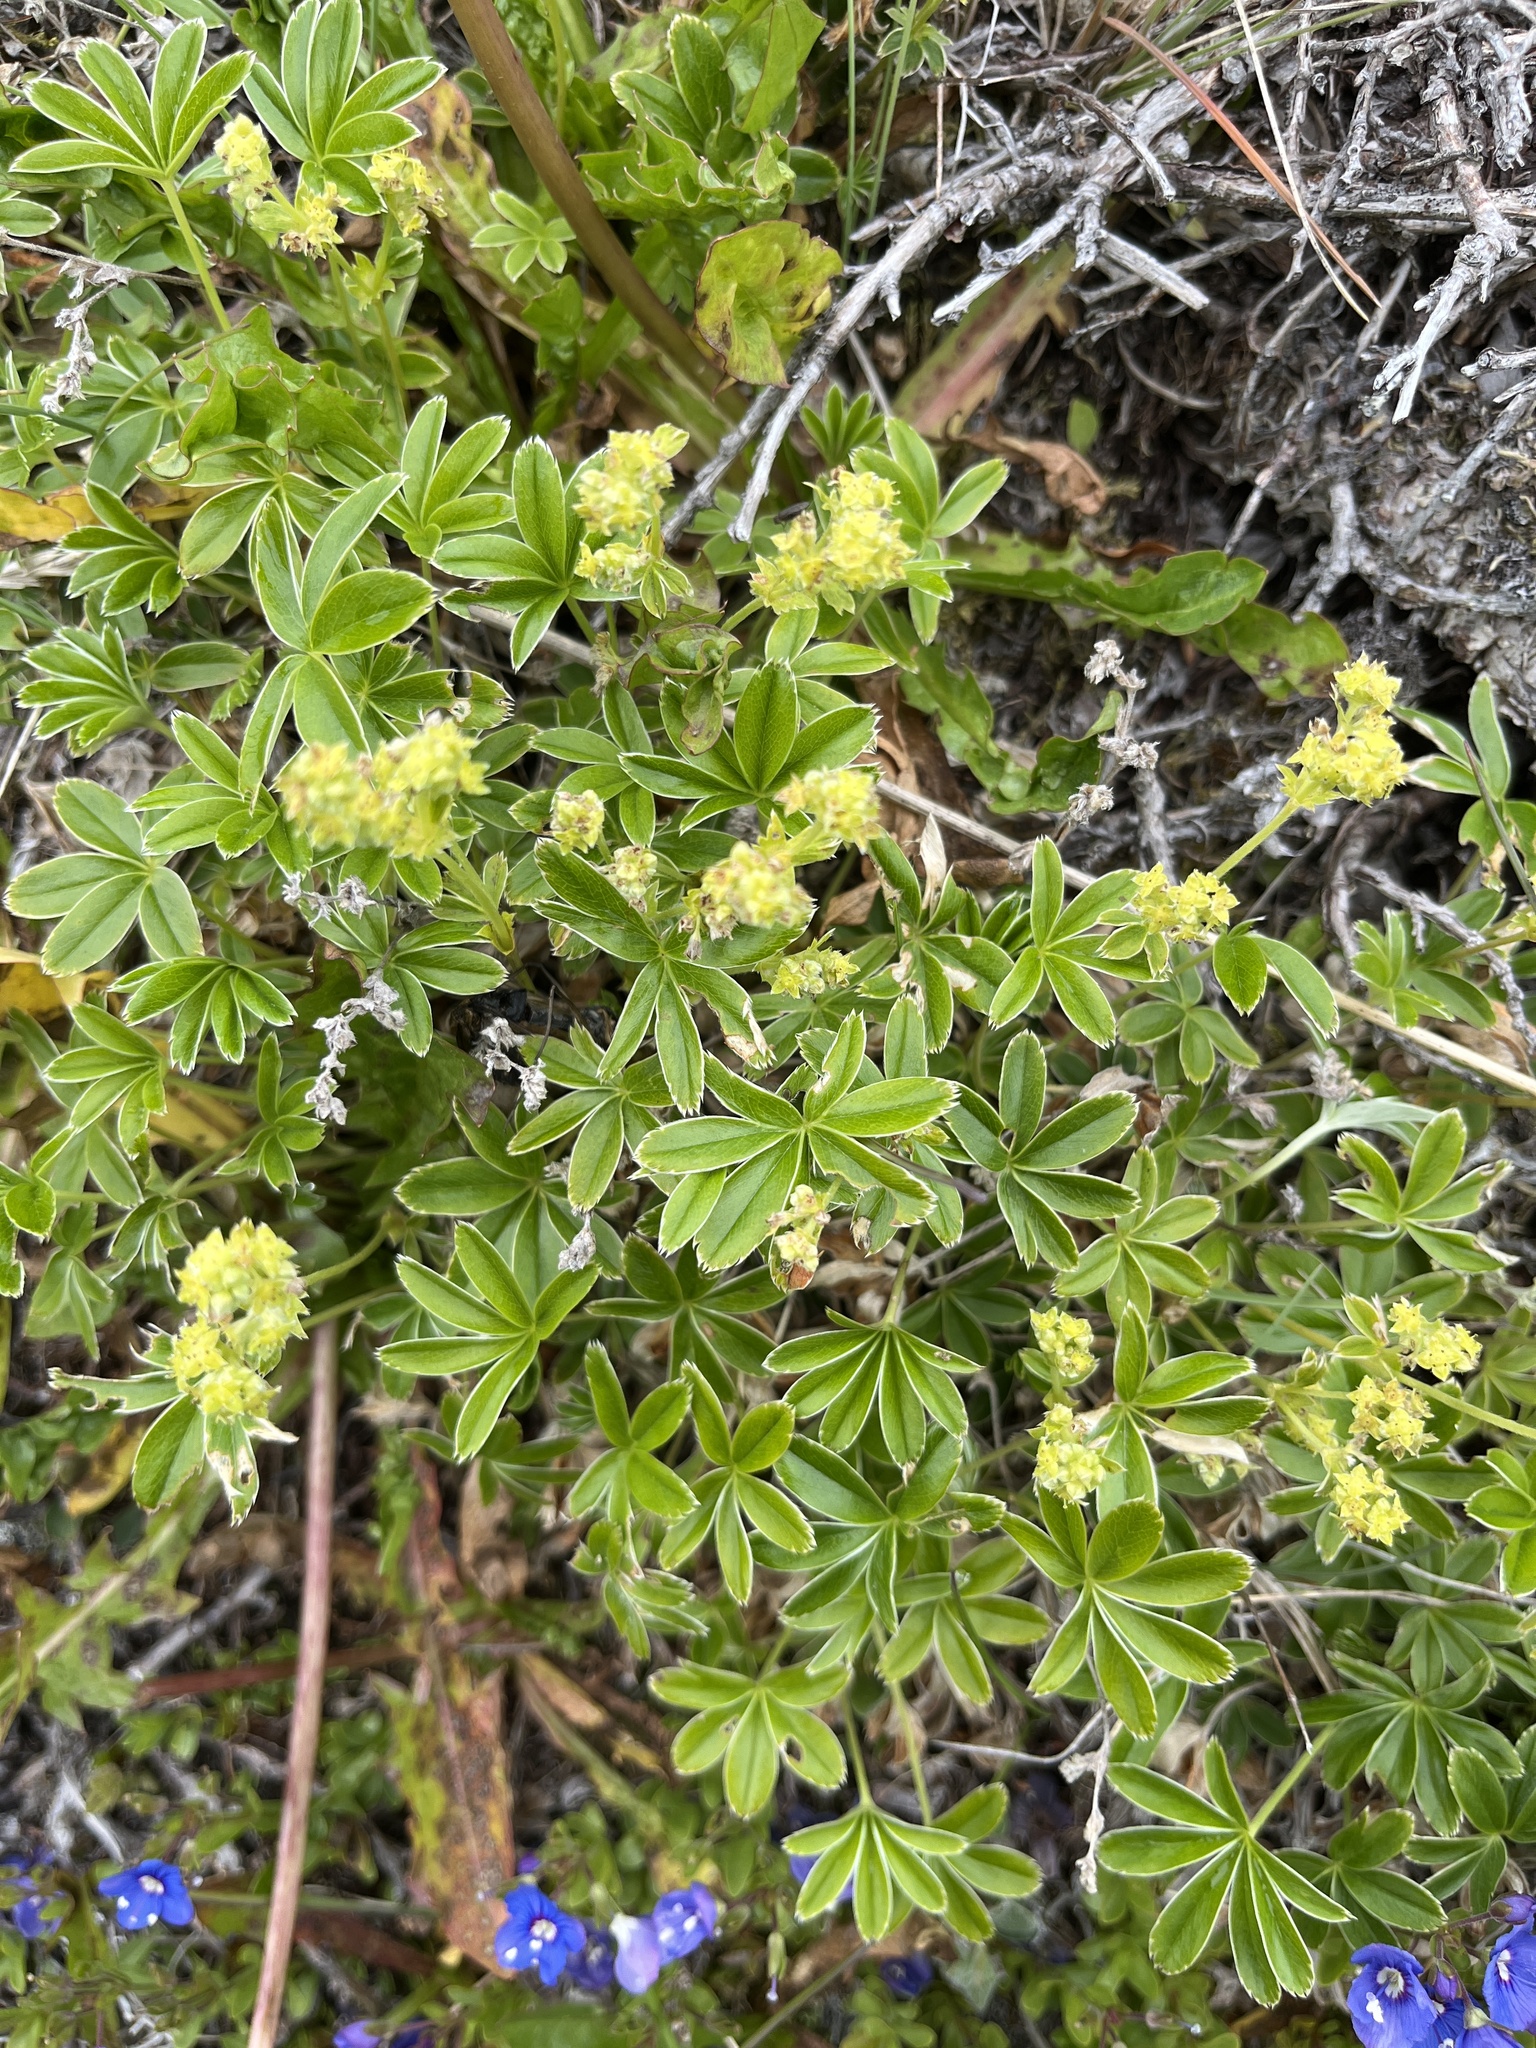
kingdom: Plantae
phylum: Tracheophyta
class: Magnoliopsida
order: Rosales
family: Rosaceae
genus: Alchemilla
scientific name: Alchemilla alpina
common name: Alpine lady's-mantle
